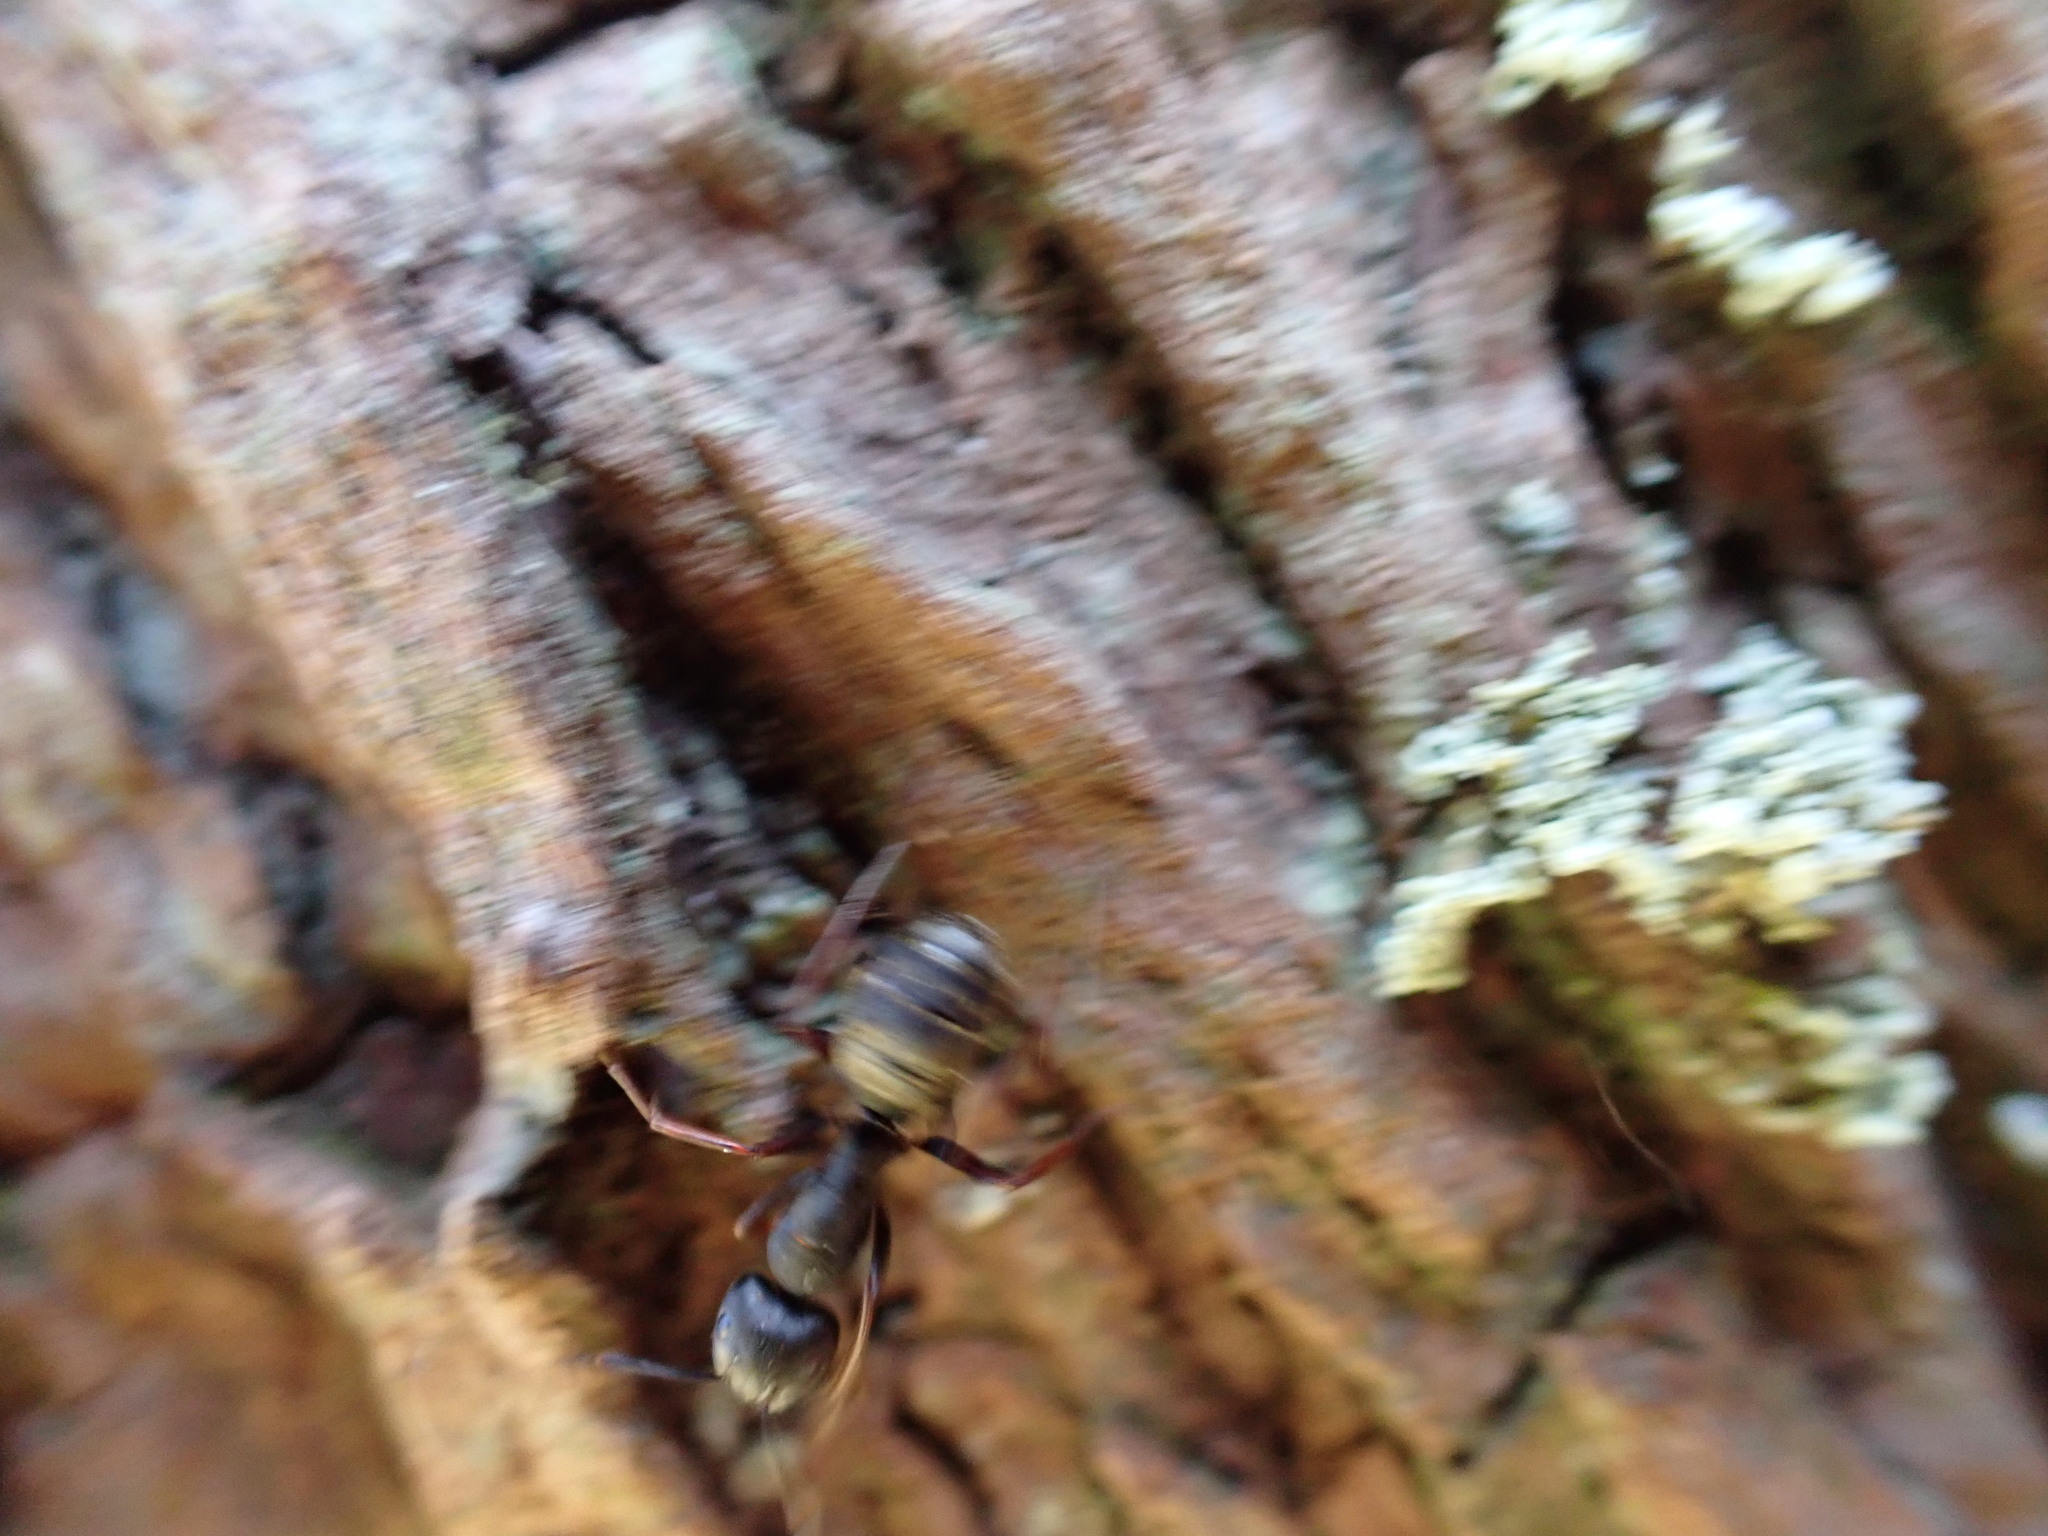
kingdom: Animalia
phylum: Arthropoda
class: Insecta
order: Hymenoptera
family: Formicidae
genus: Camponotus
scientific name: Camponotus modoc
